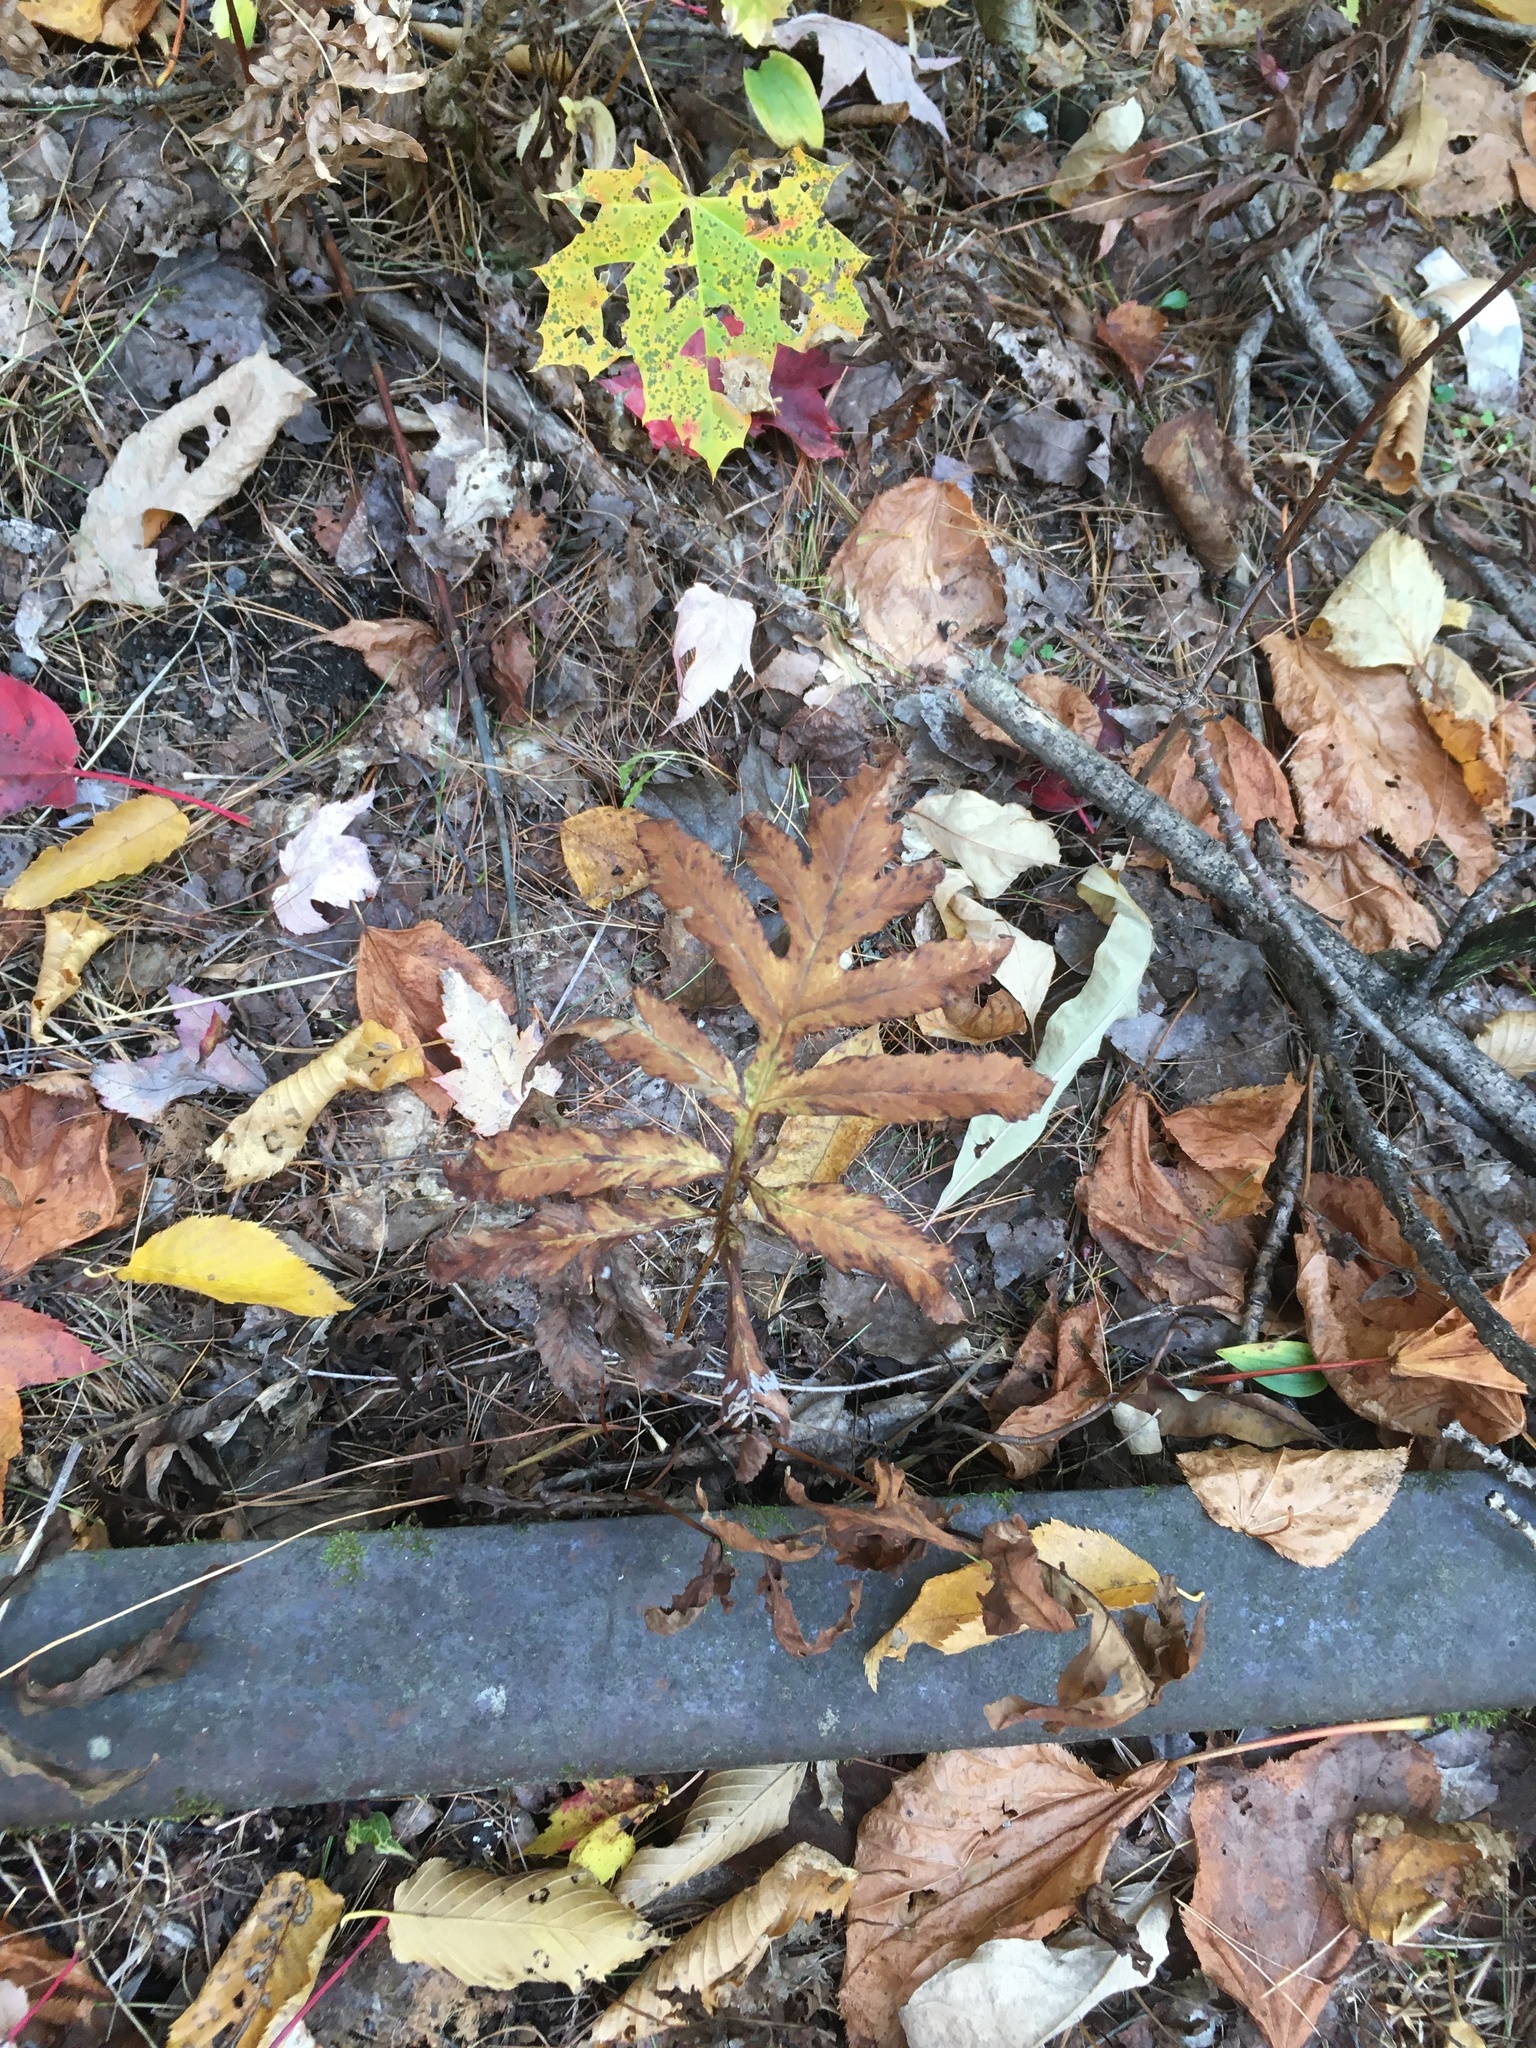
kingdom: Plantae
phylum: Tracheophyta
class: Polypodiopsida
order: Polypodiales
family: Onocleaceae
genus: Onoclea
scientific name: Onoclea sensibilis
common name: Sensitive fern
